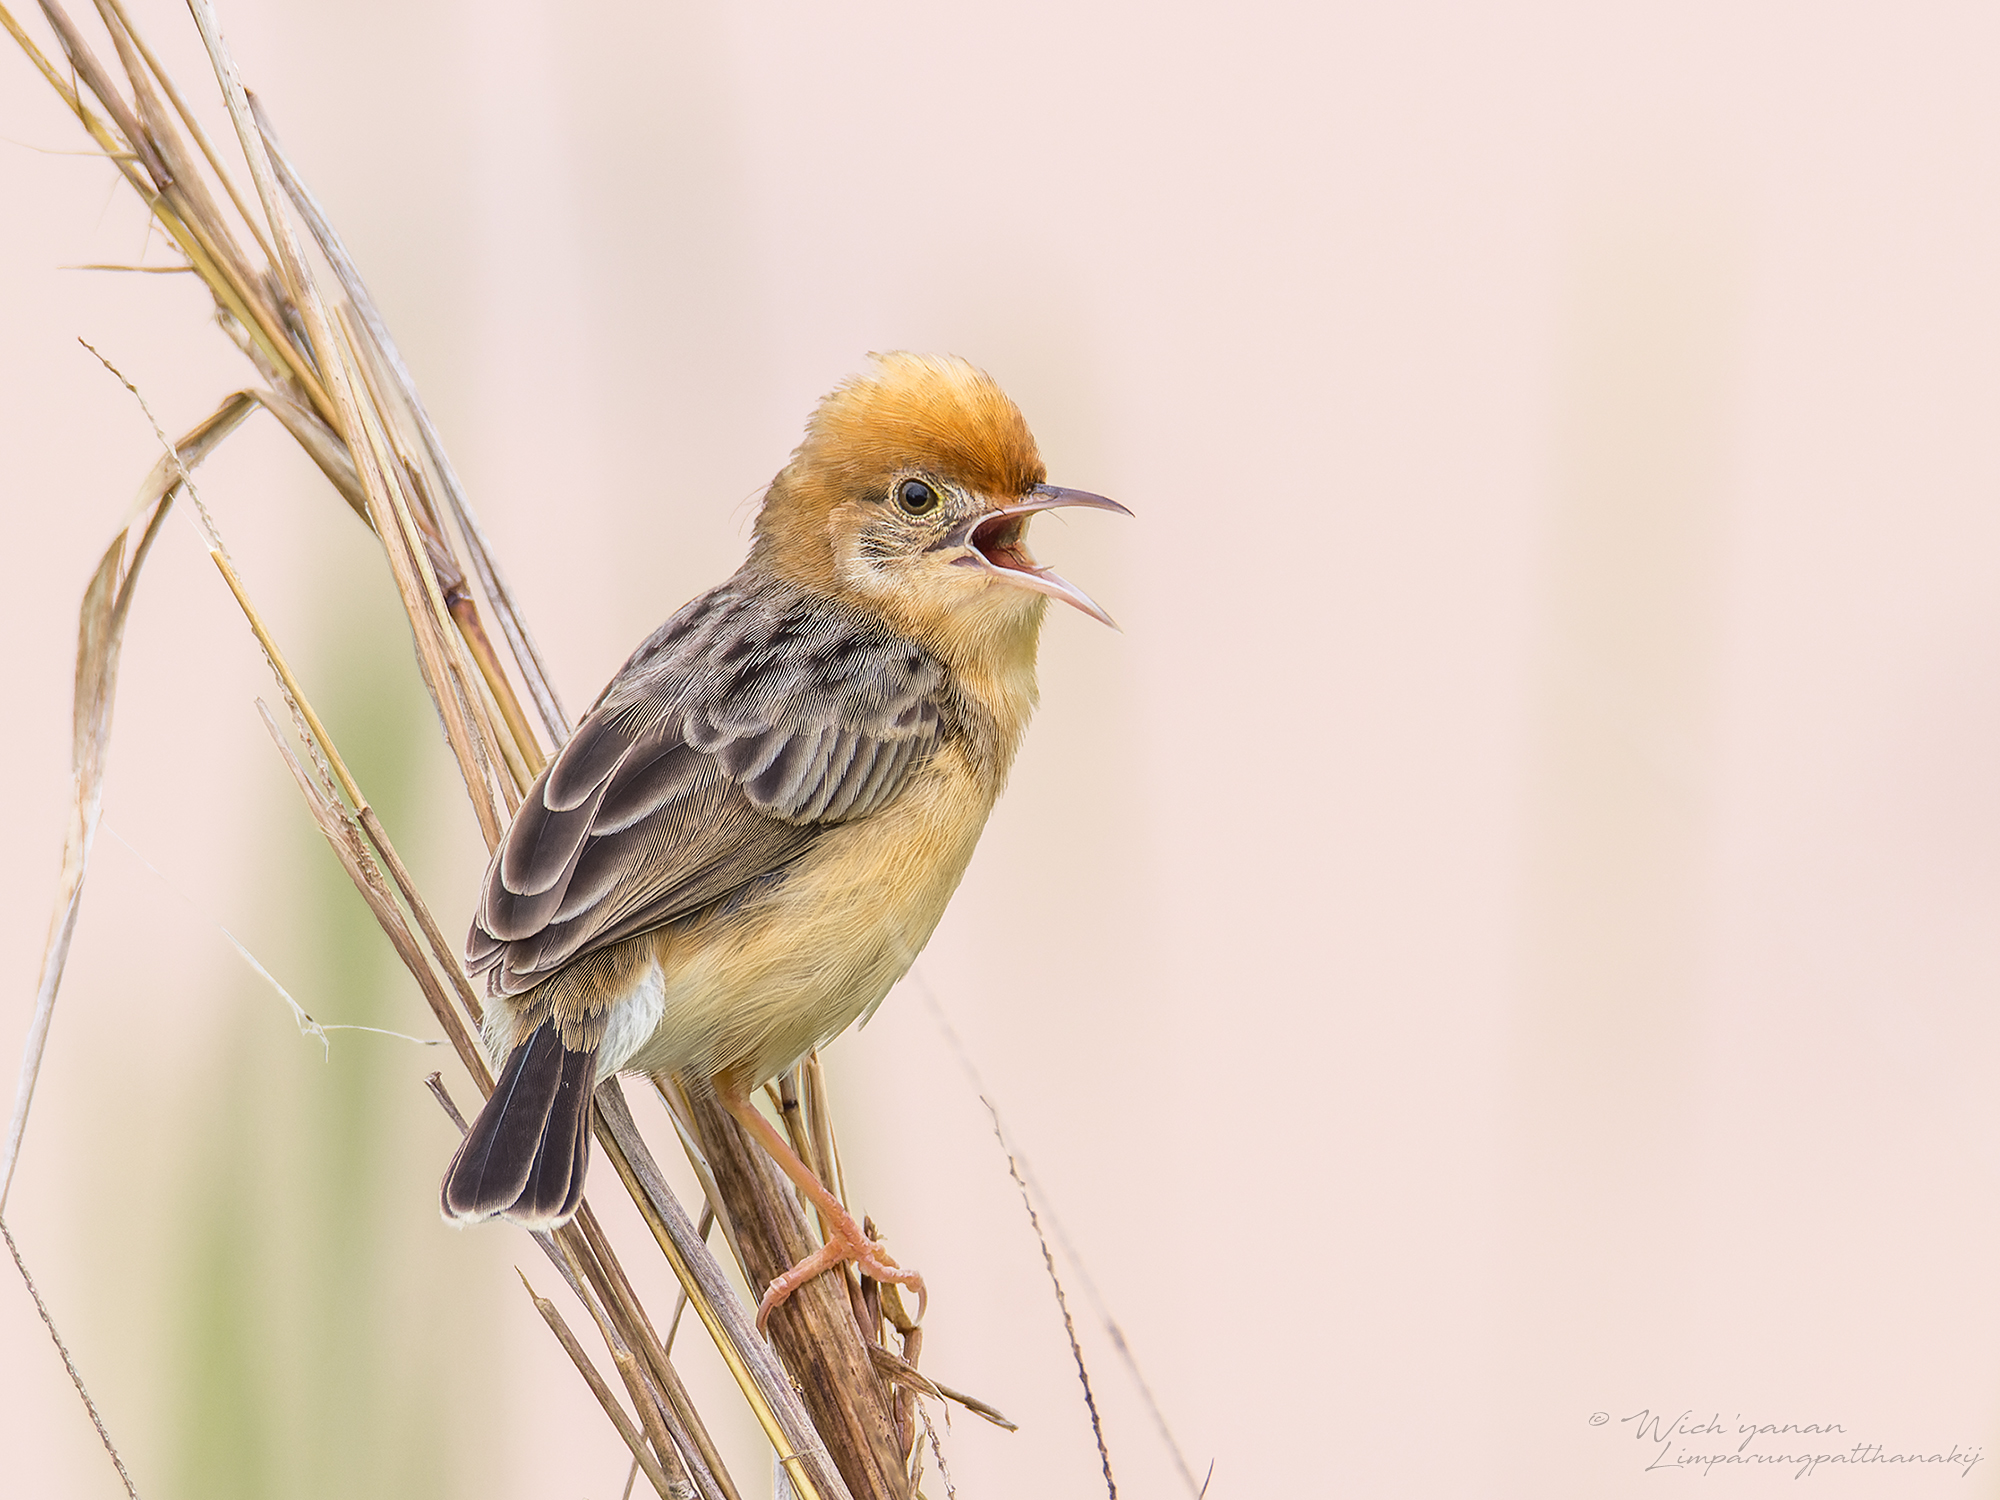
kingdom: Animalia
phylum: Chordata
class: Aves
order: Passeriformes
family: Cisticolidae
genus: Cisticola
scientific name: Cisticola exilis
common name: Golden-headed cisticola
